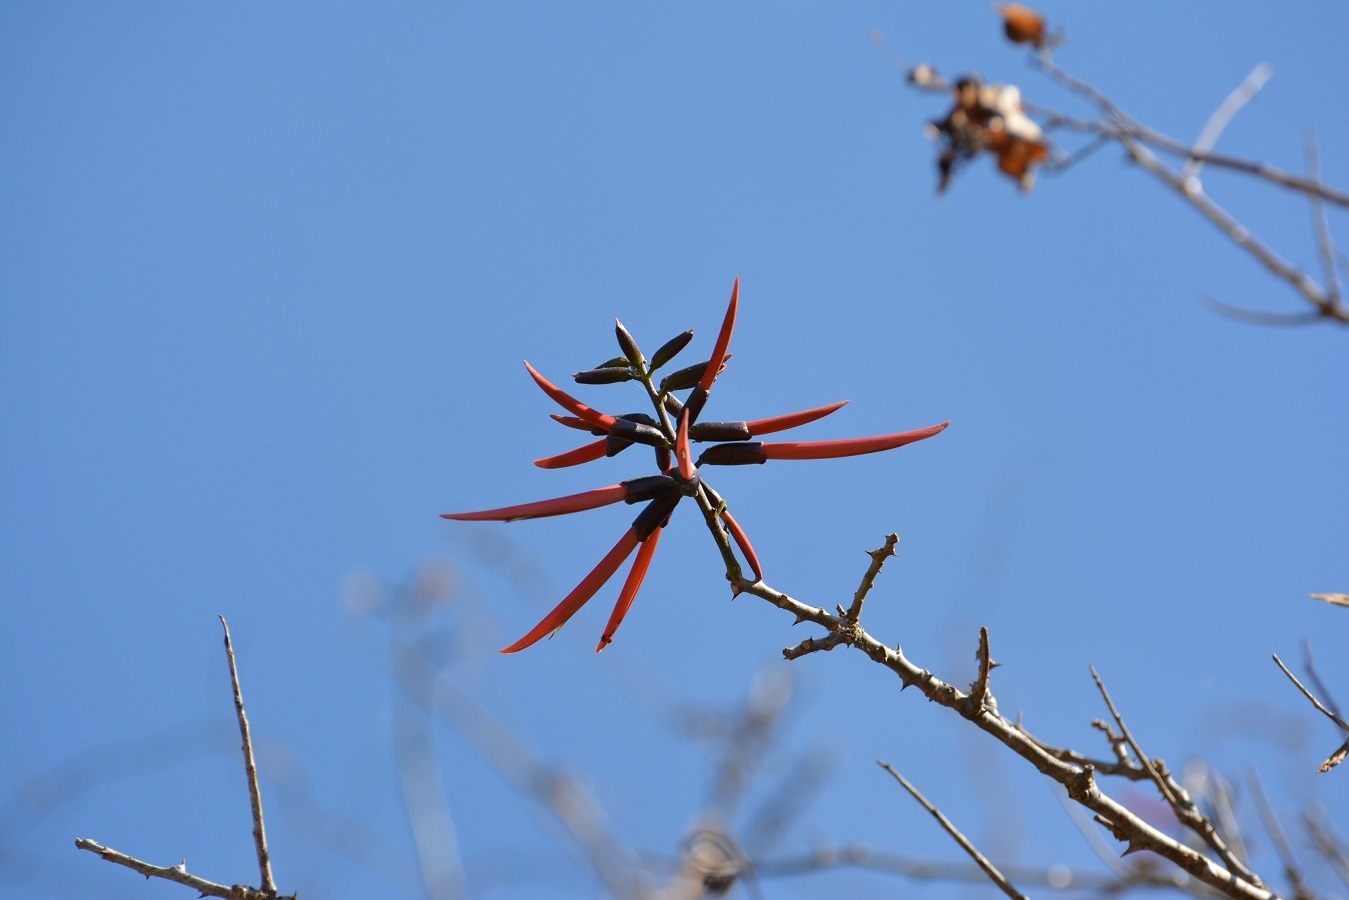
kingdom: Plantae
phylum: Tracheophyta
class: Magnoliopsida
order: Fabales
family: Fabaceae
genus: Erythrina
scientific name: Erythrina goldmanii
